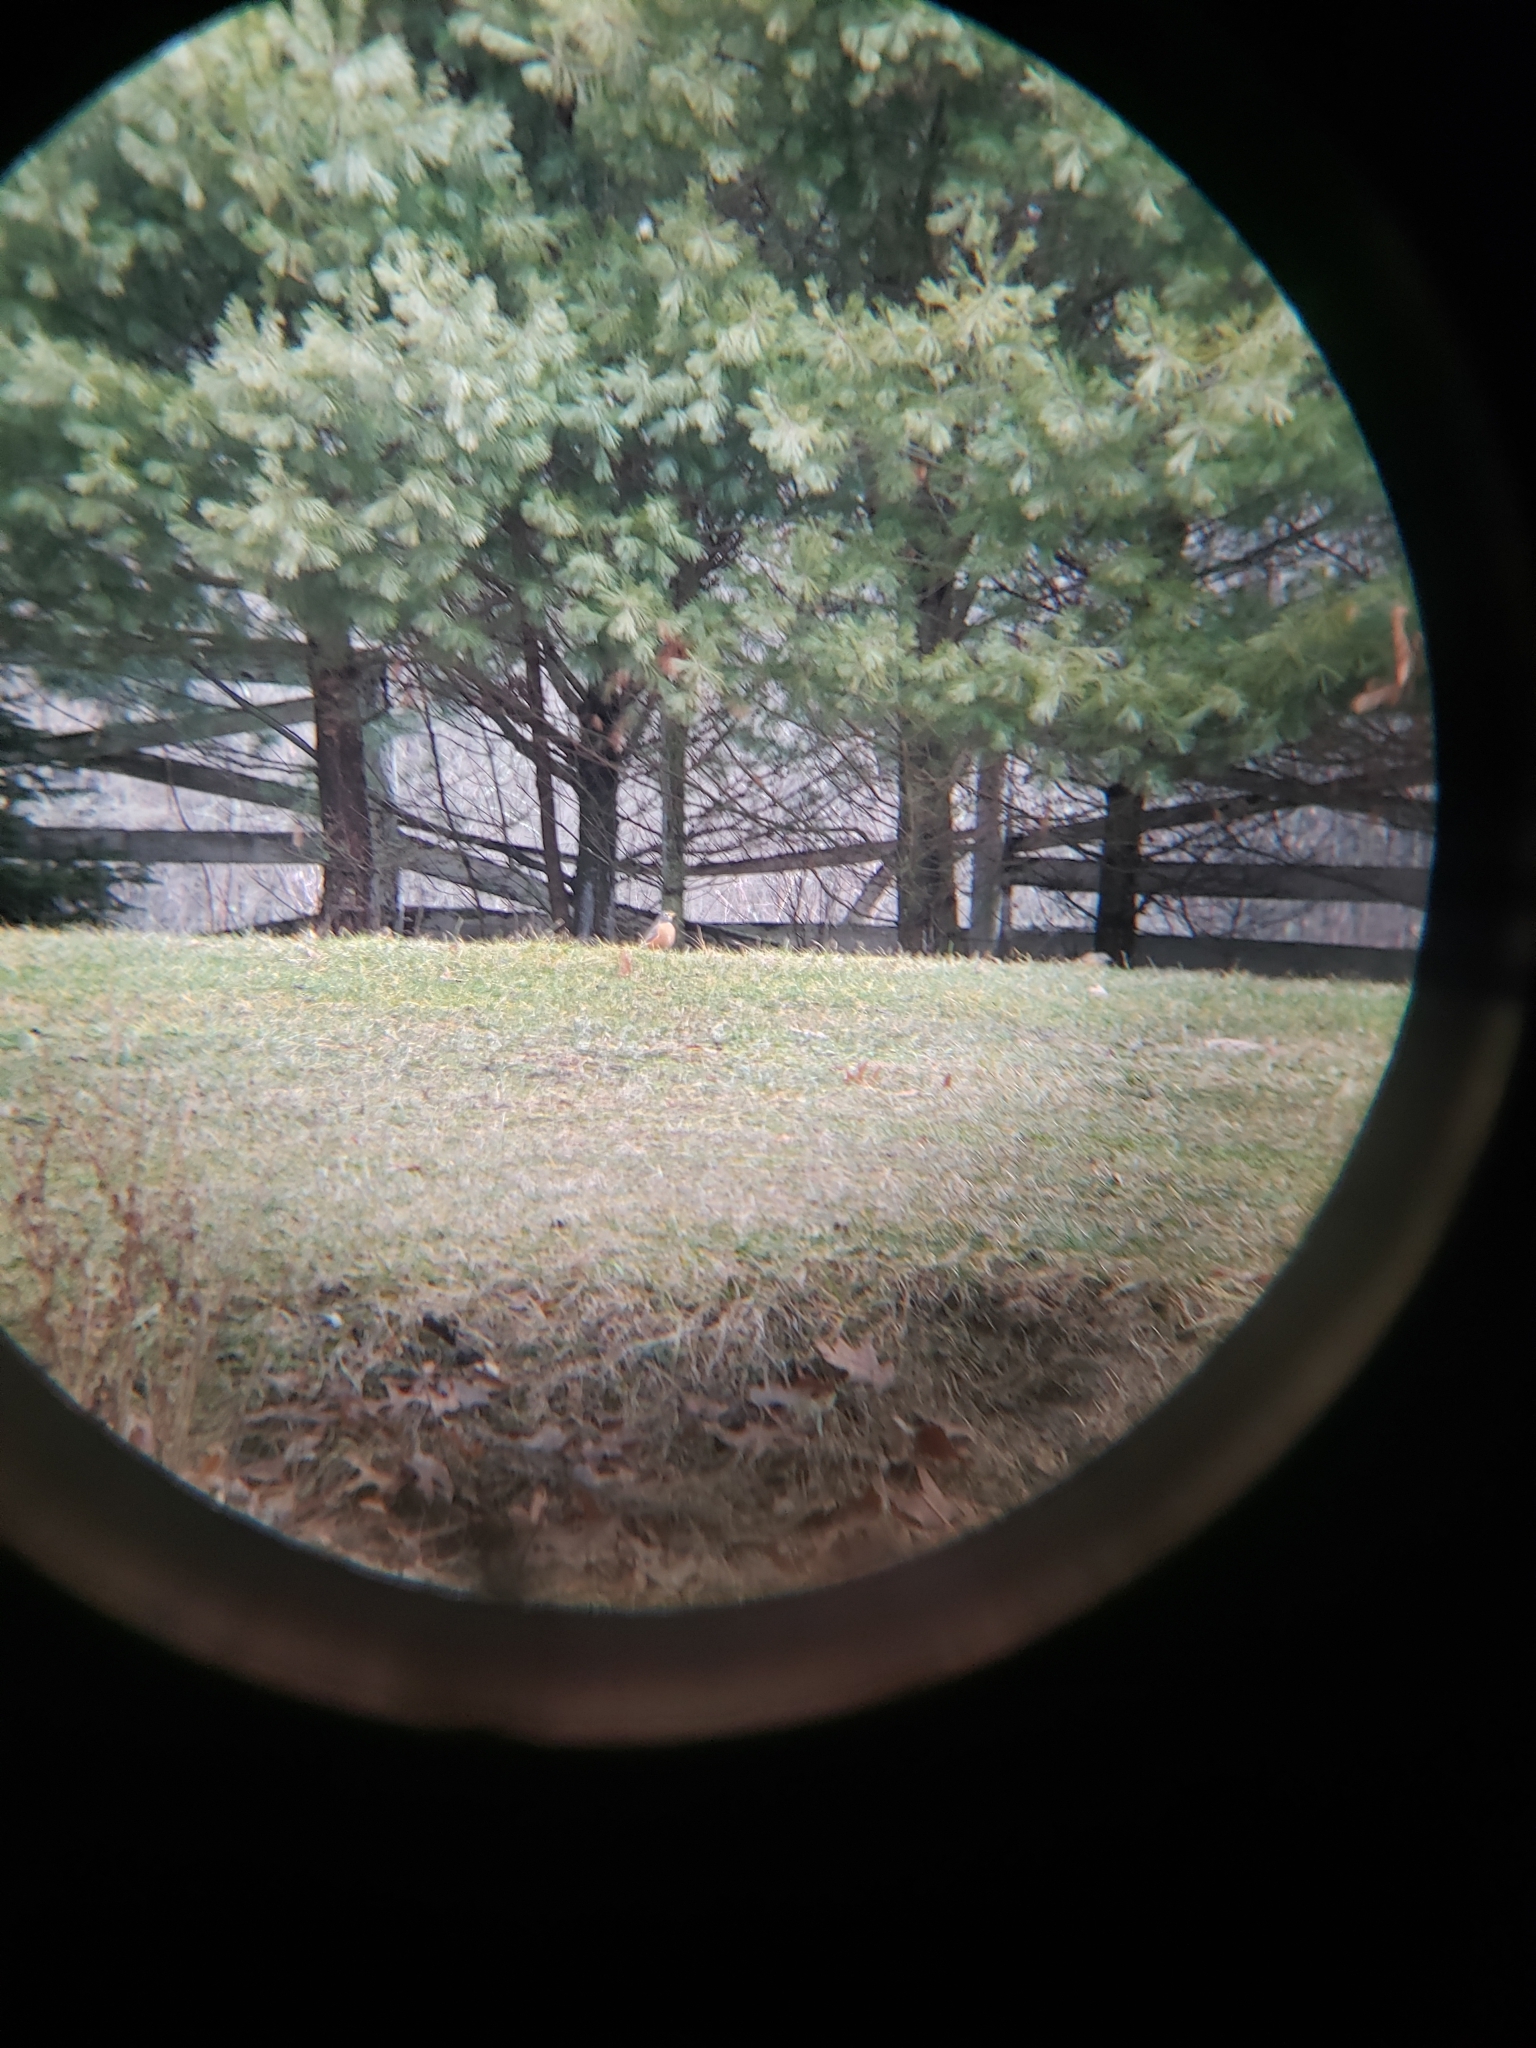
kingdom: Animalia
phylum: Chordata
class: Aves
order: Passeriformes
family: Turdidae
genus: Turdus
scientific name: Turdus migratorius
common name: American robin
